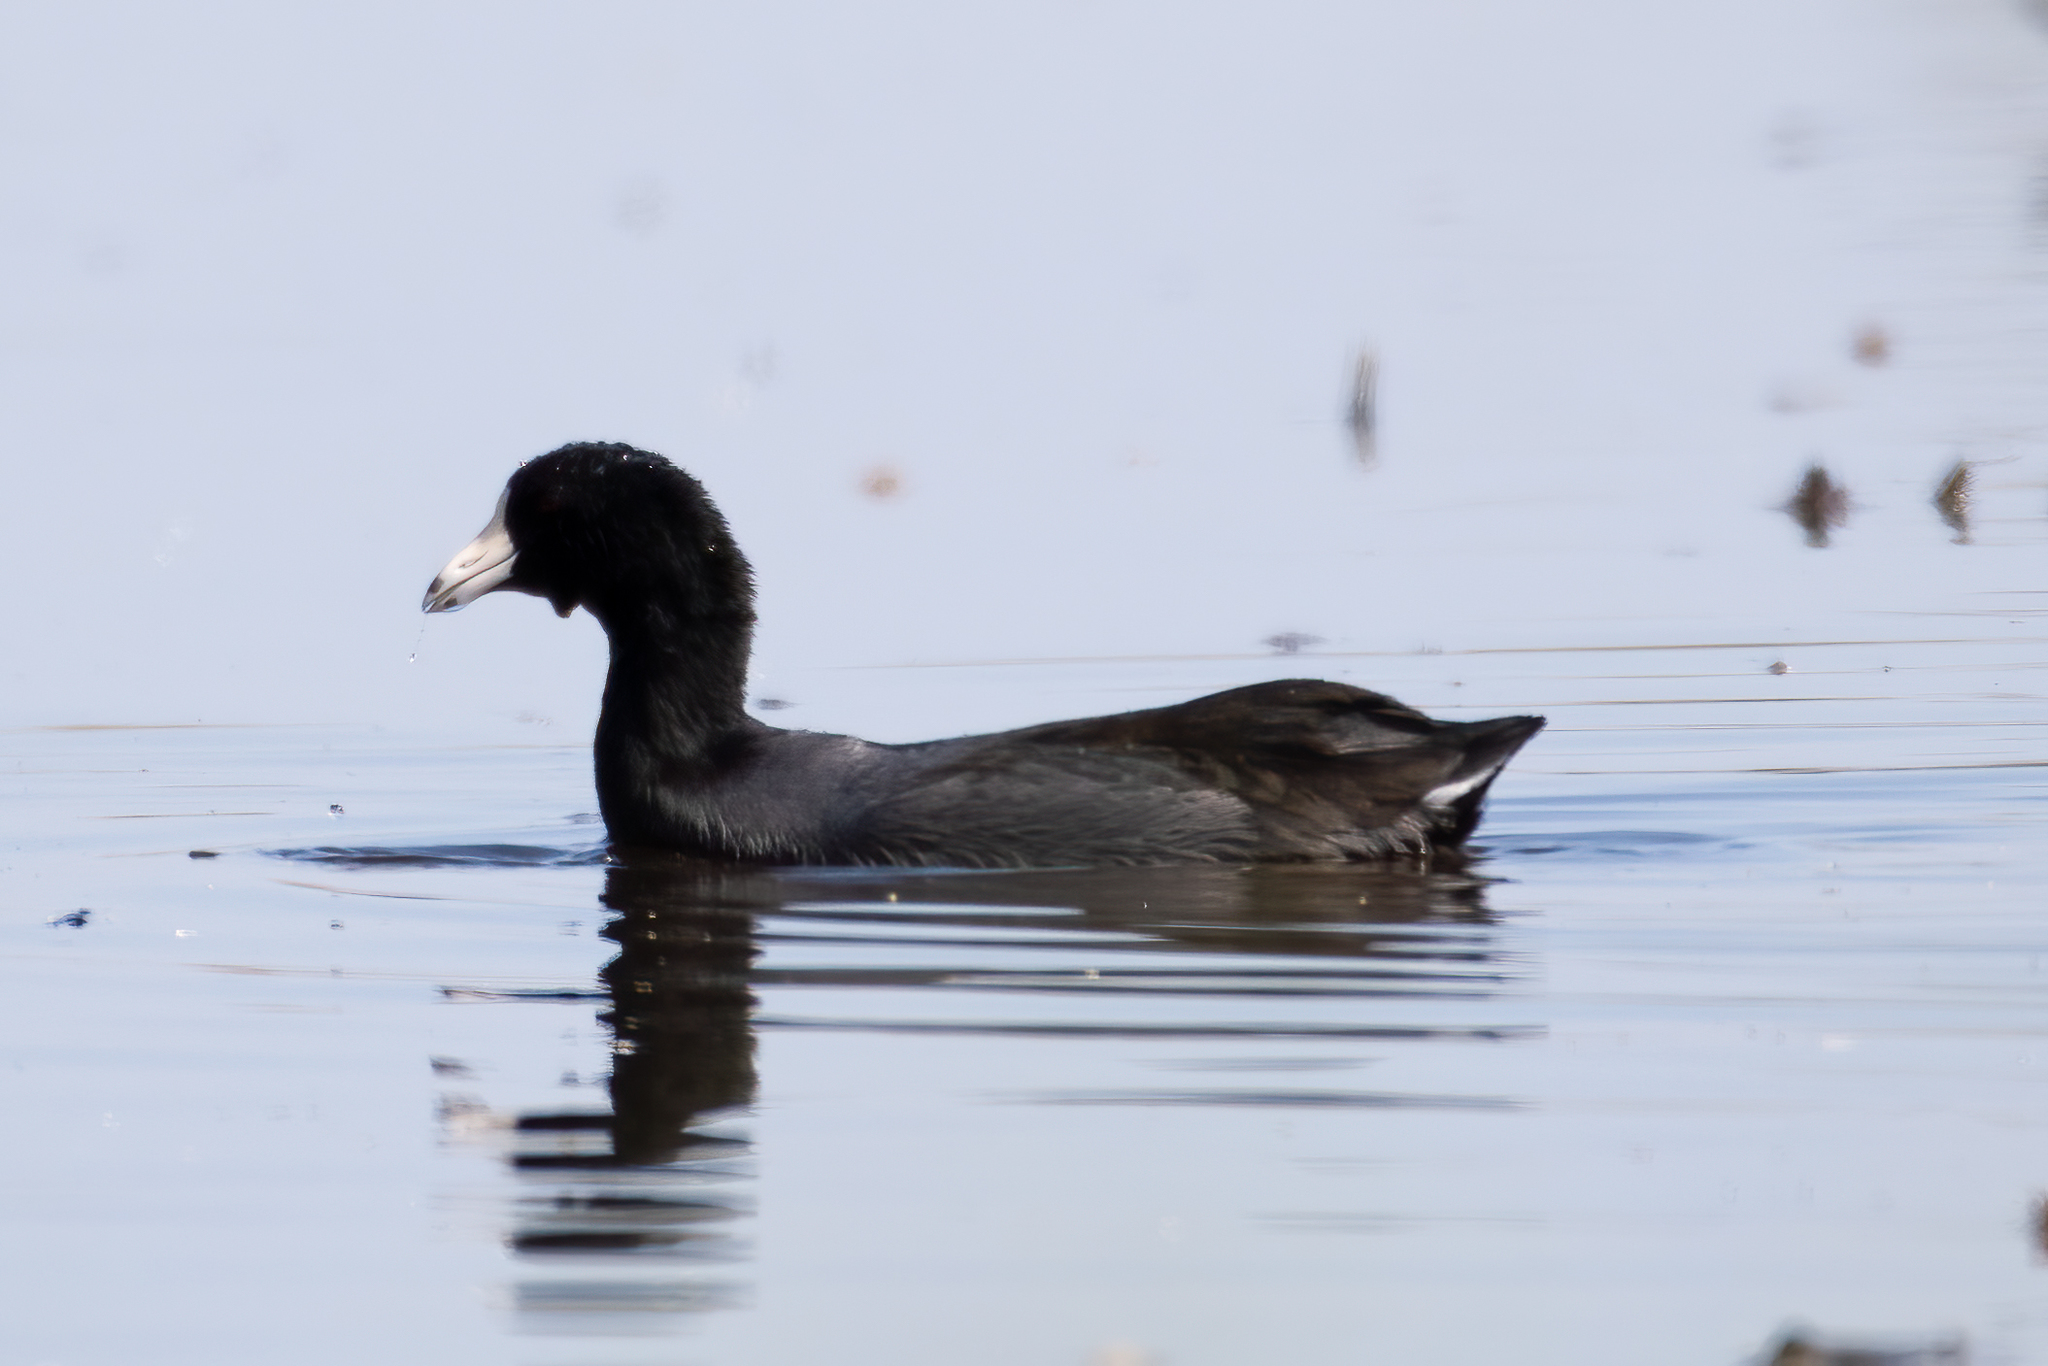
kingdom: Animalia
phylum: Chordata
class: Aves
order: Gruiformes
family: Rallidae
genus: Fulica
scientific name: Fulica americana
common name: American coot
